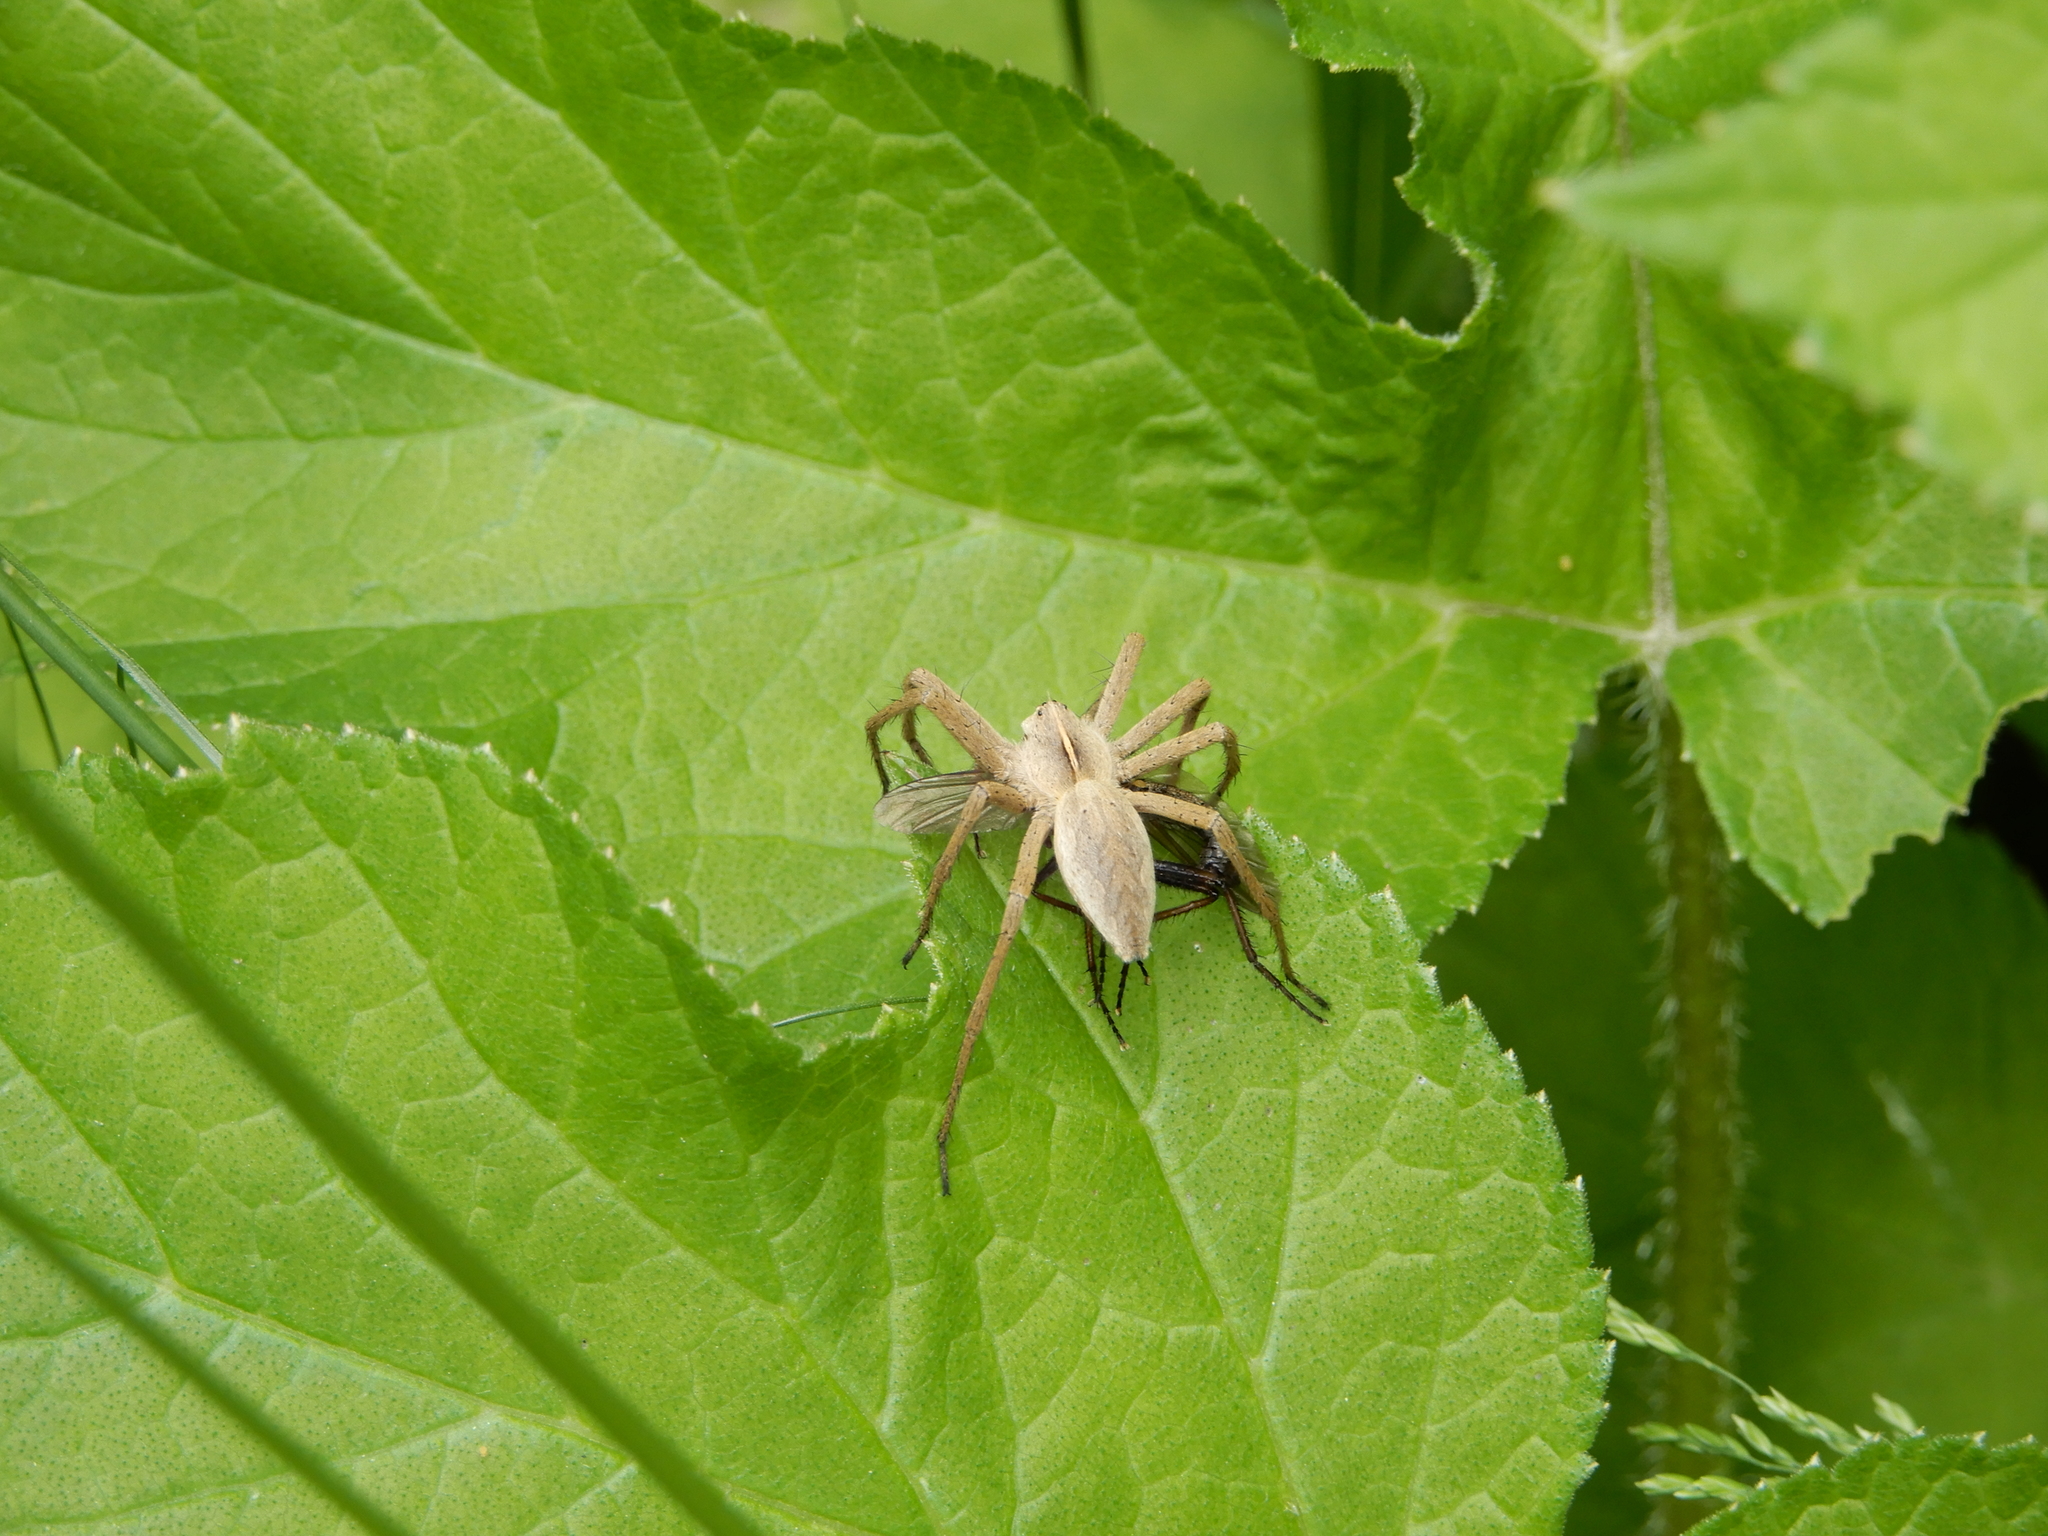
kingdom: Animalia
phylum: Arthropoda
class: Arachnida
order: Araneae
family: Pisauridae
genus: Pisaura
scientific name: Pisaura mirabilis
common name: Tent spider
